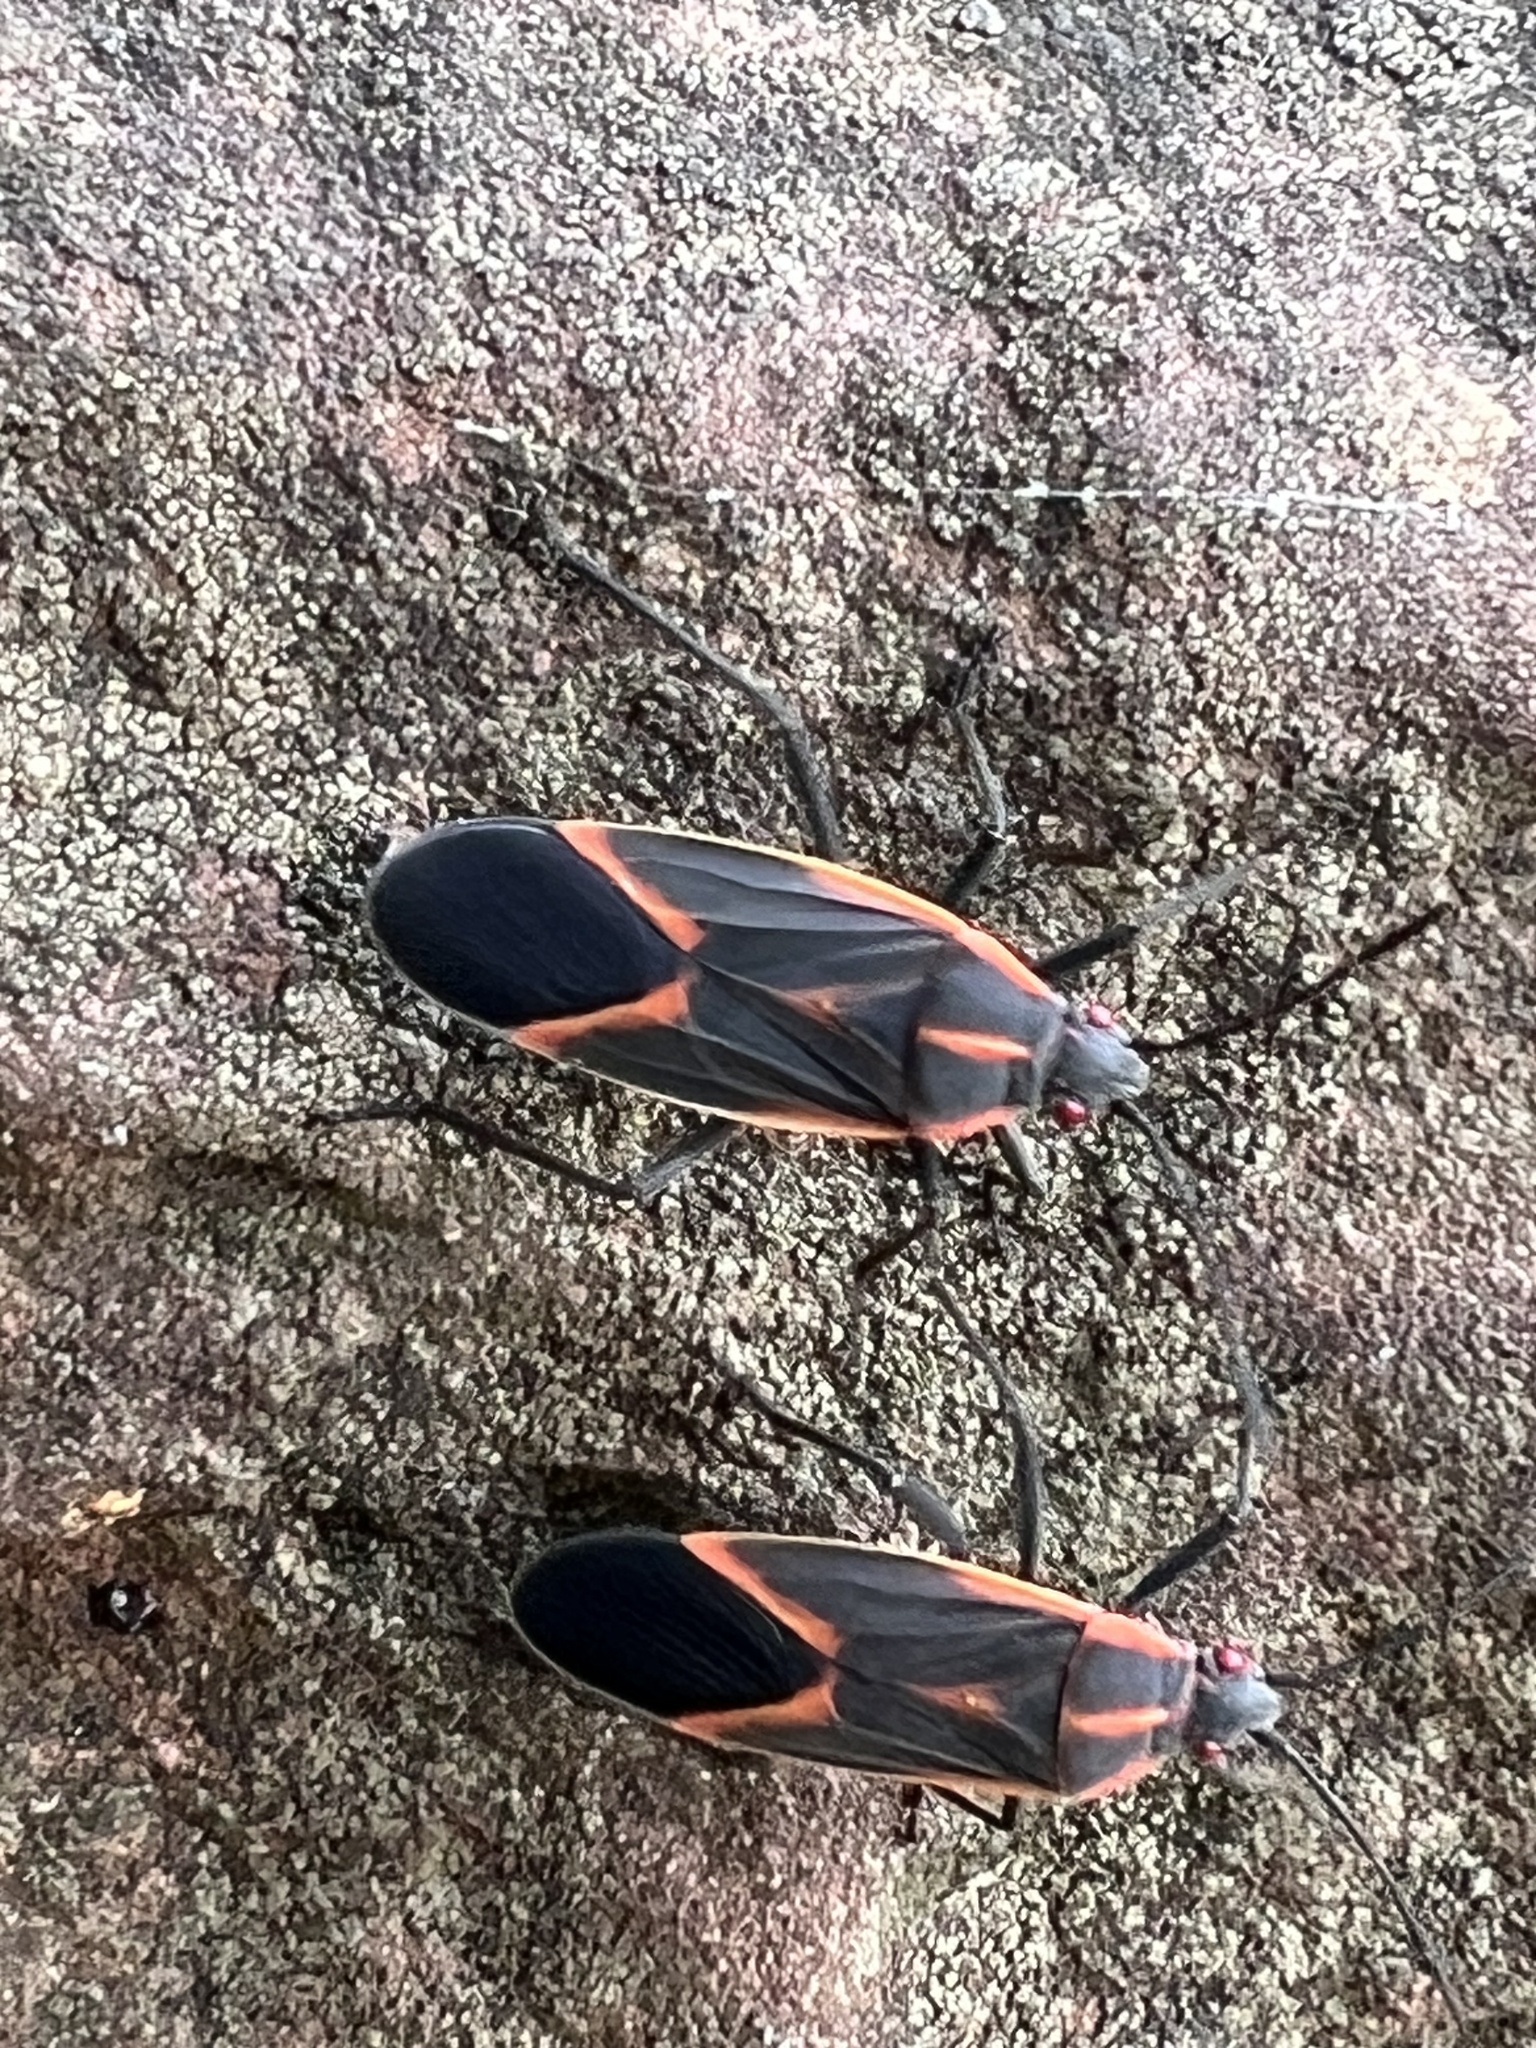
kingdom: Animalia
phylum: Arthropoda
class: Insecta
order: Hemiptera
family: Rhopalidae
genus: Boisea
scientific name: Boisea trivittata
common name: Boxelder bug
